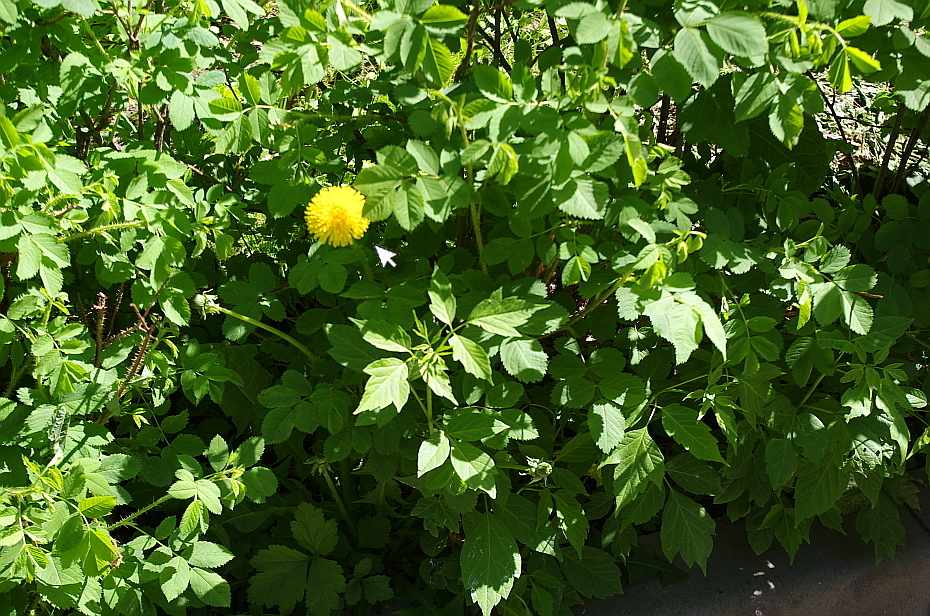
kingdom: Plantae
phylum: Tracheophyta
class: Magnoliopsida
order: Asterales
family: Asteraceae
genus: Taraxacum
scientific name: Taraxacum officinale
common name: Common dandelion
